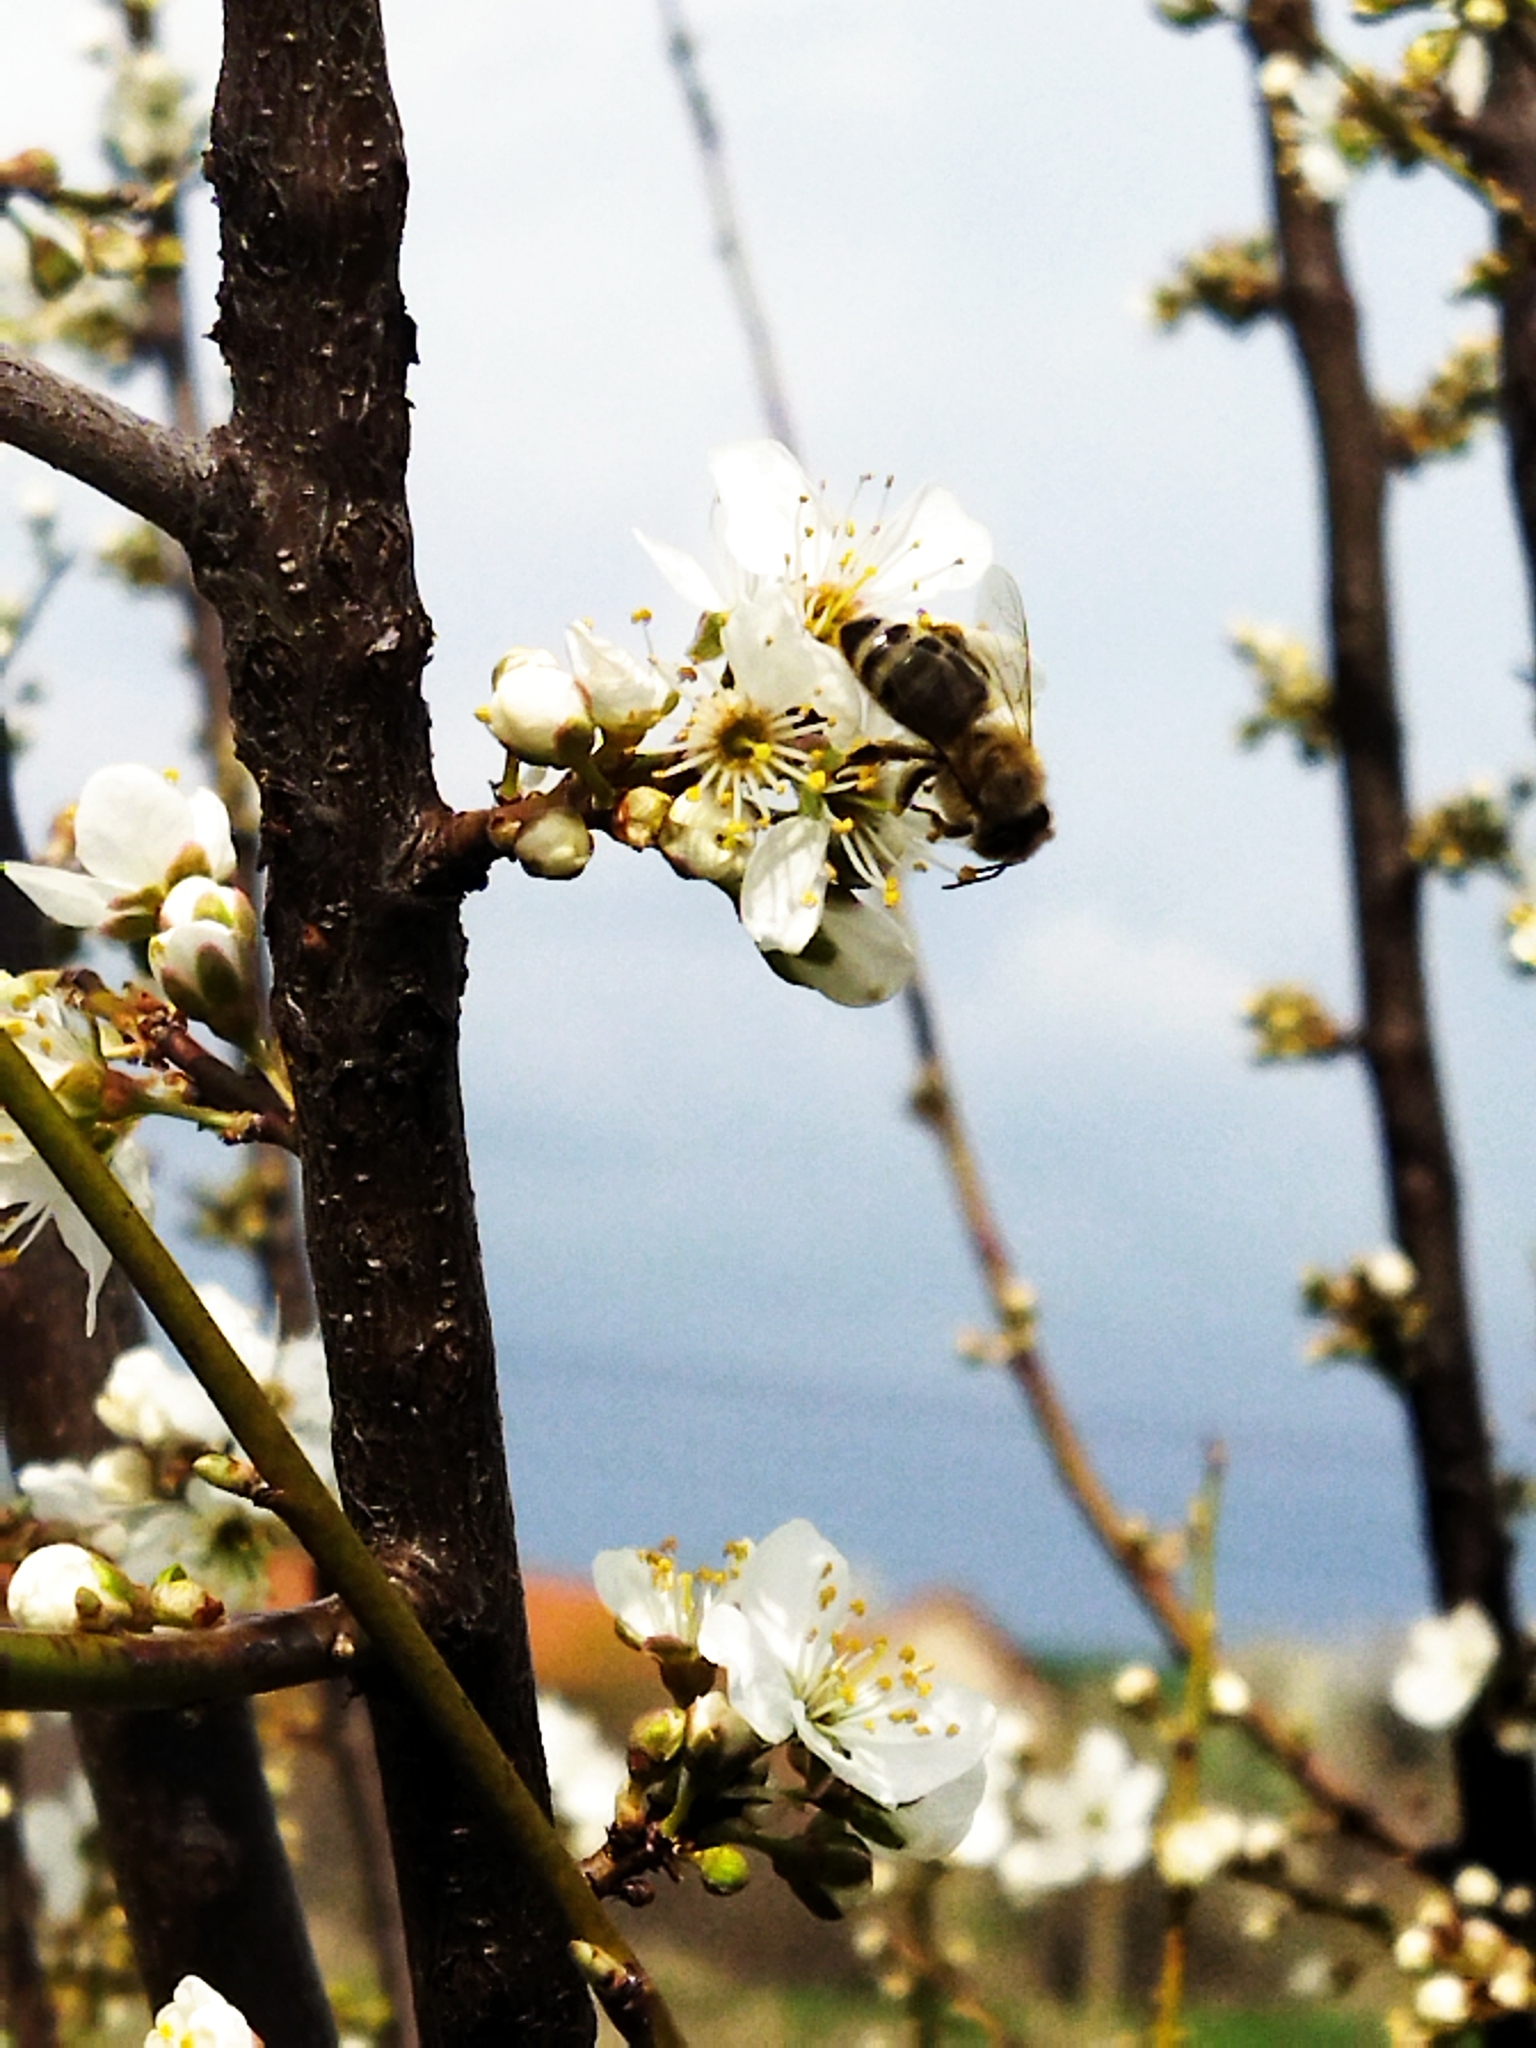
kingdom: Animalia
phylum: Arthropoda
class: Insecta
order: Hymenoptera
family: Apidae
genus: Apis
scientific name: Apis mellifera
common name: Honey bee
